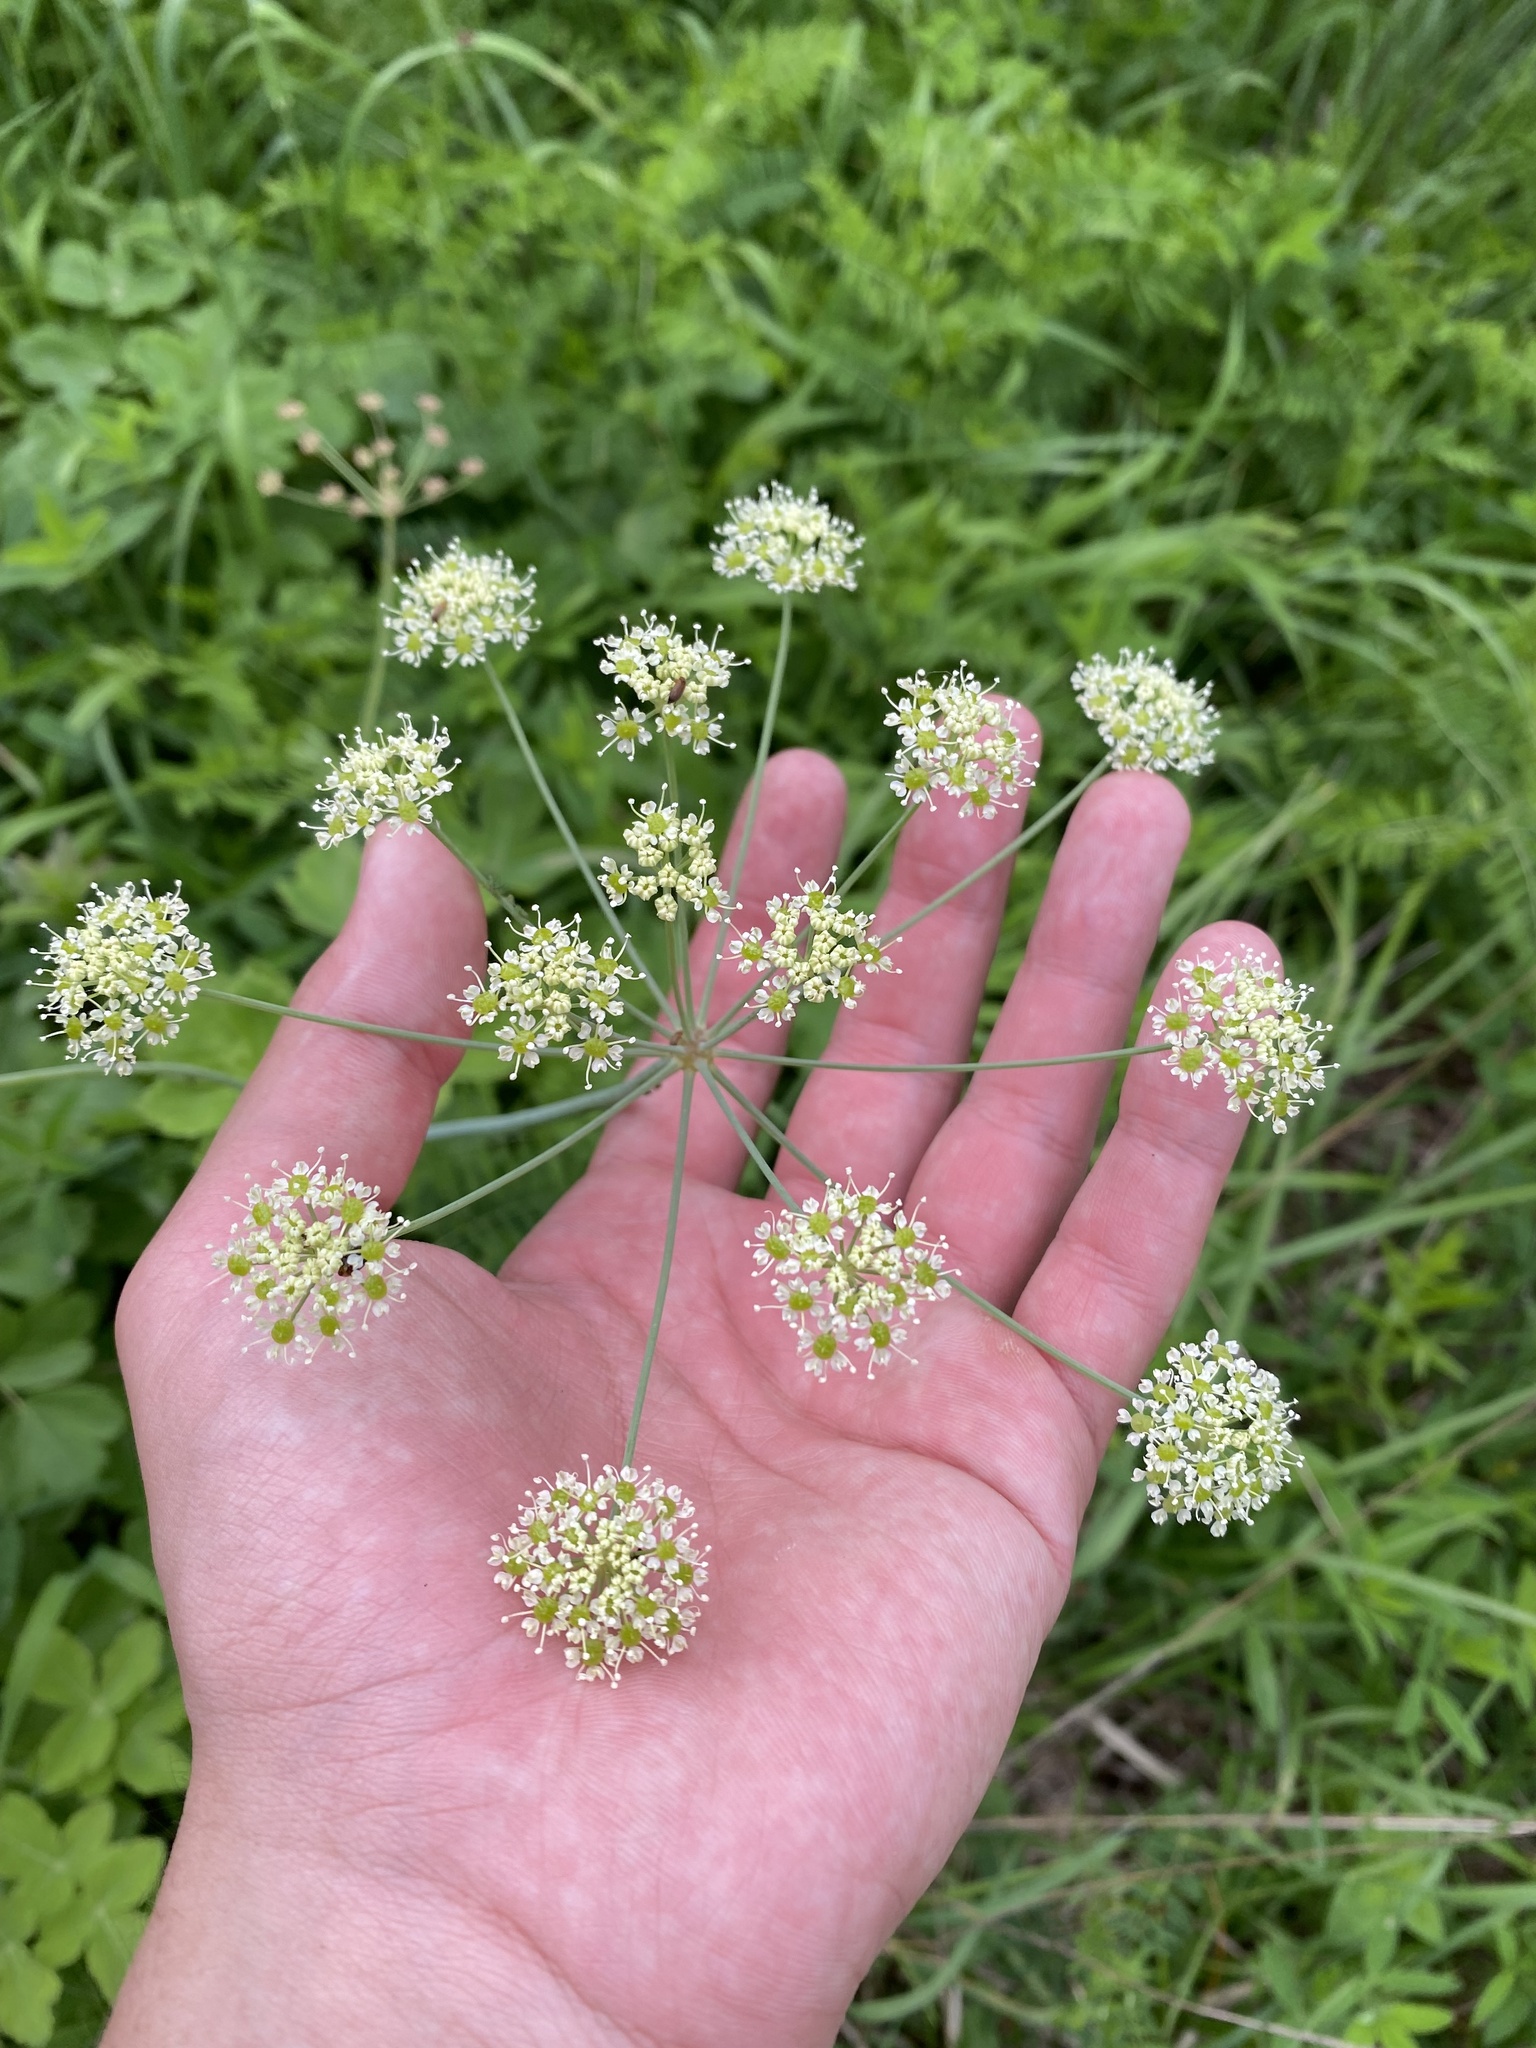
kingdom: Plantae
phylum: Tracheophyta
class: Magnoliopsida
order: Apiales
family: Apiaceae
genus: Laser
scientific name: Laser trilobum
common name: Laser
